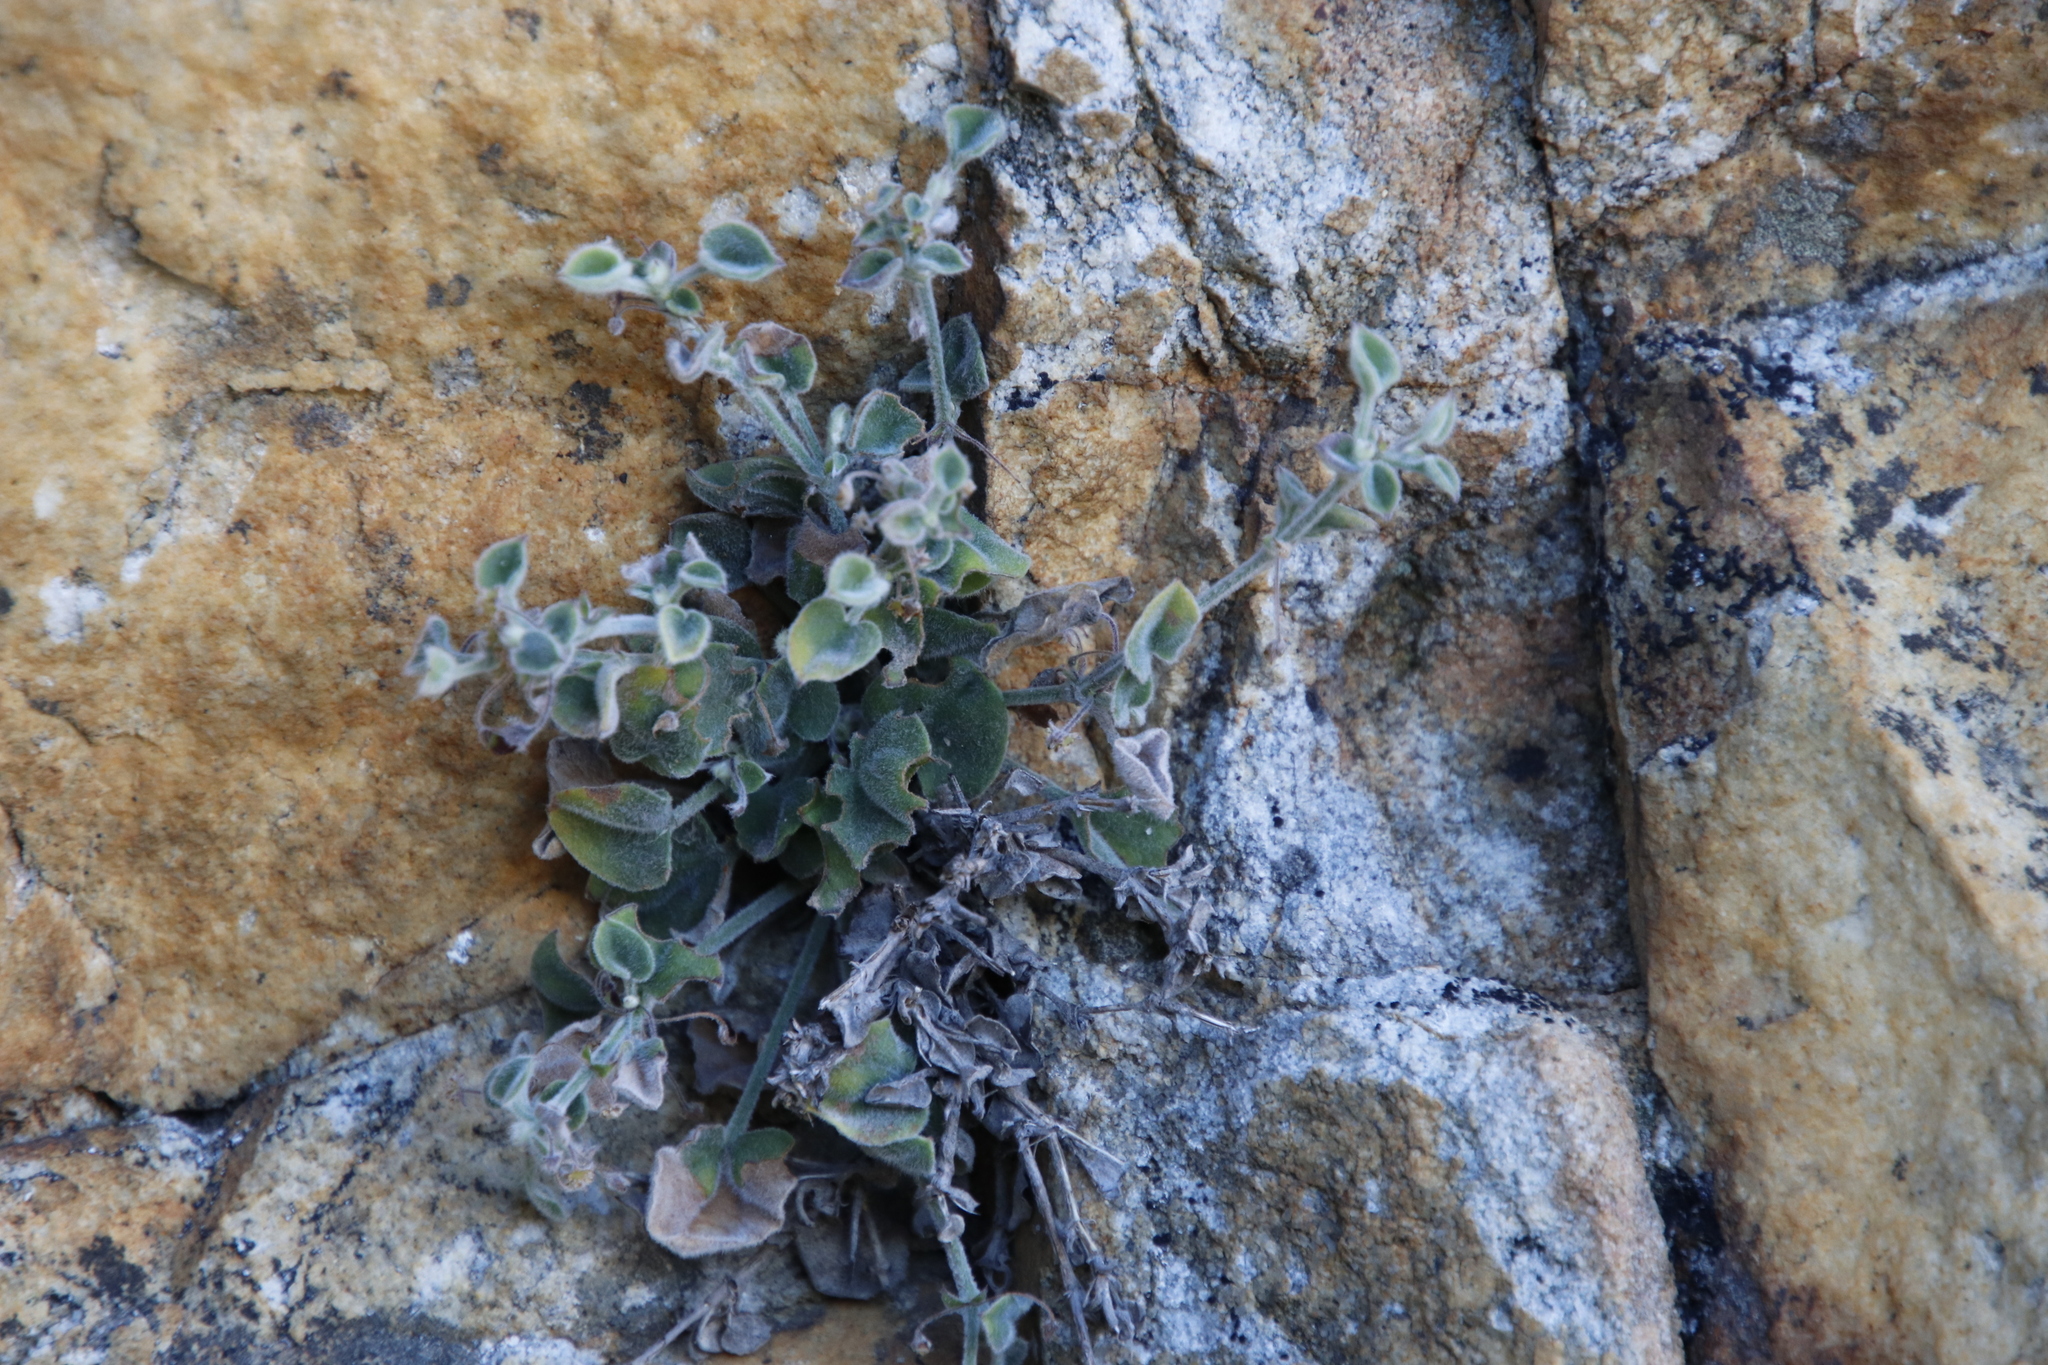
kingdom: Plantae
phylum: Tracheophyta
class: Magnoliopsida
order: Apiales
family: Apiaceae
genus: Centella
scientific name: Centella villosa
